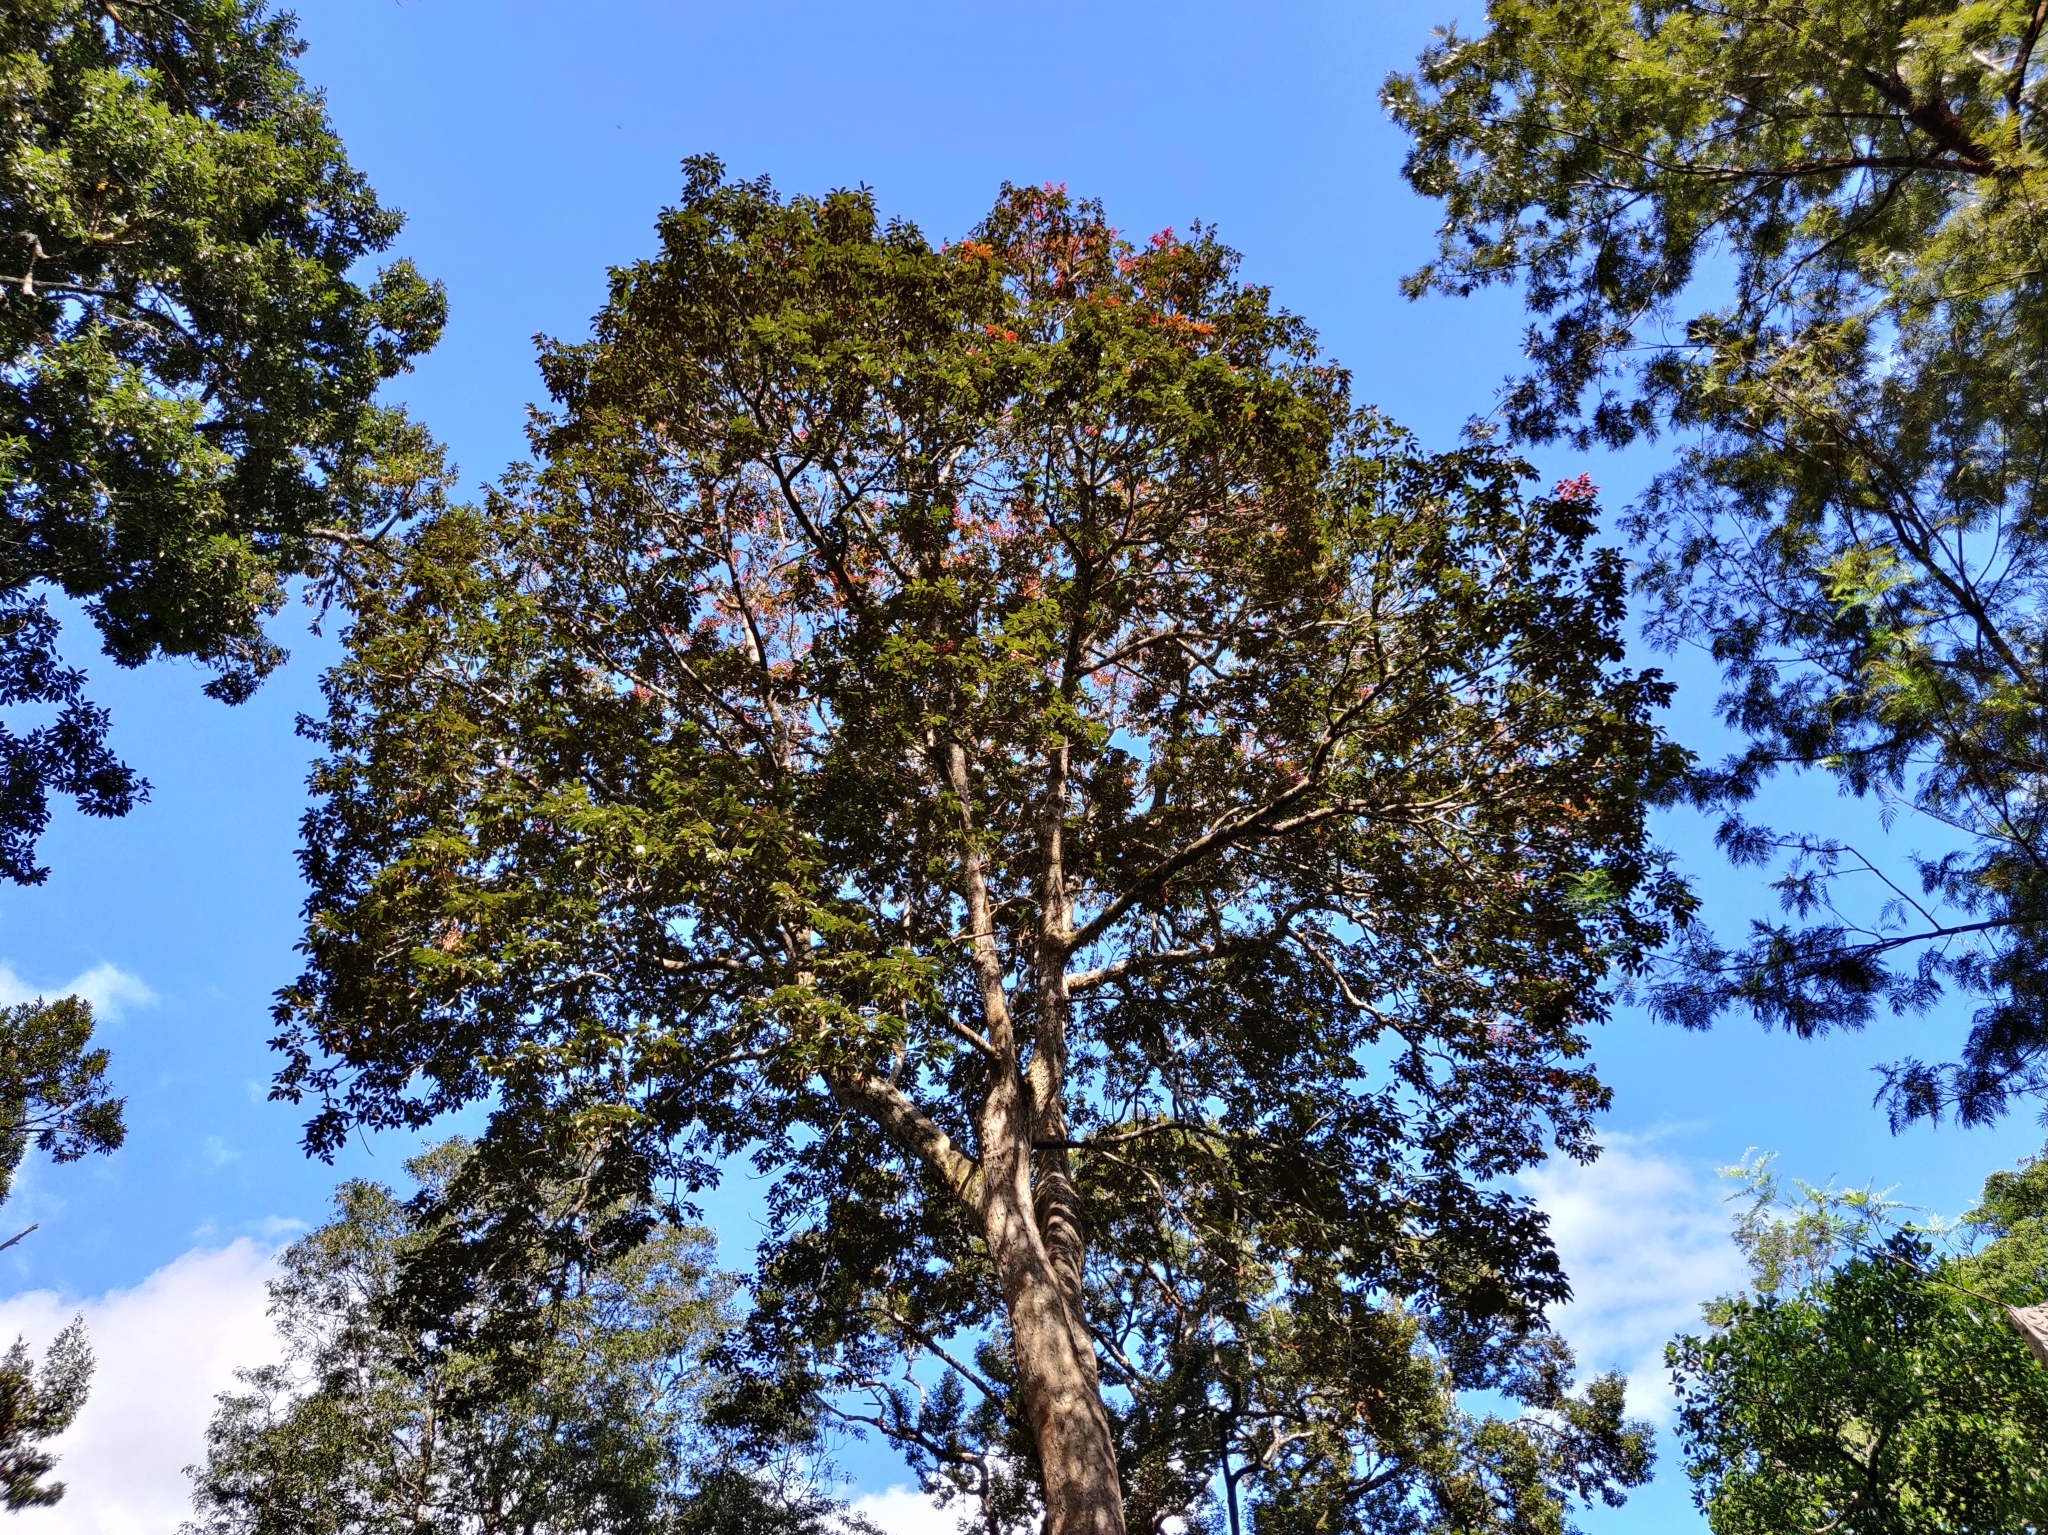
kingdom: Plantae
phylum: Tracheophyta
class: Magnoliopsida
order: Sapindales
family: Burseraceae
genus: Canarium
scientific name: Canarium strictum
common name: Indian white-mahogany
